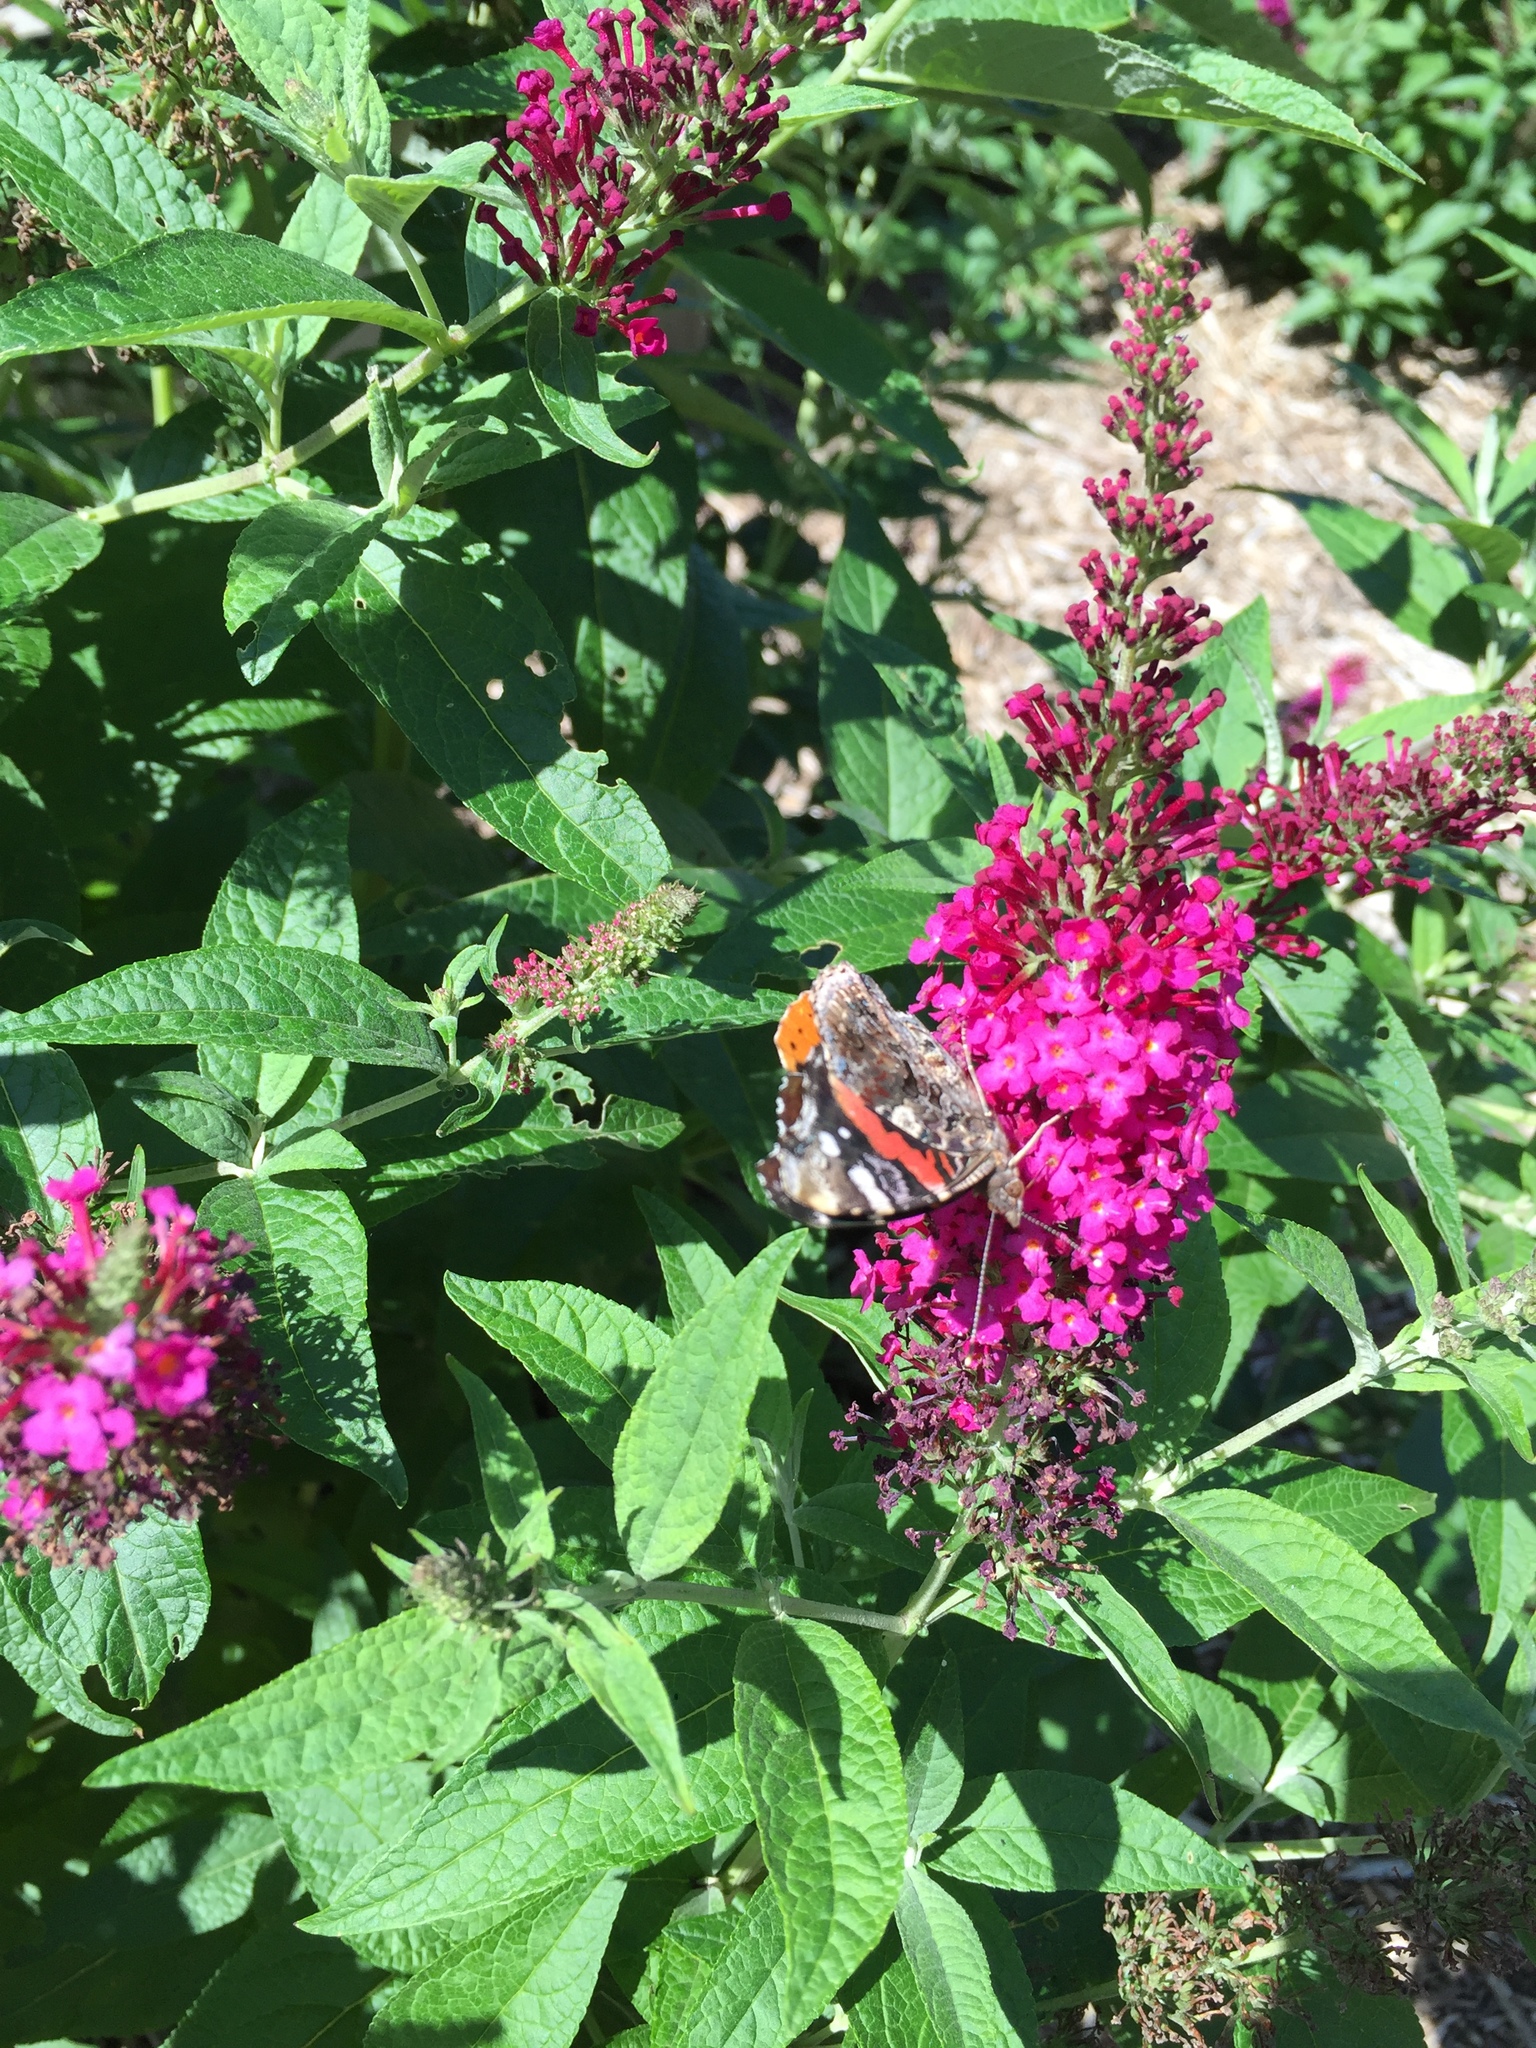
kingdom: Animalia
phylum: Arthropoda
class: Insecta
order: Lepidoptera
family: Nymphalidae
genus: Vanessa
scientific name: Vanessa atalanta
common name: Red admiral
